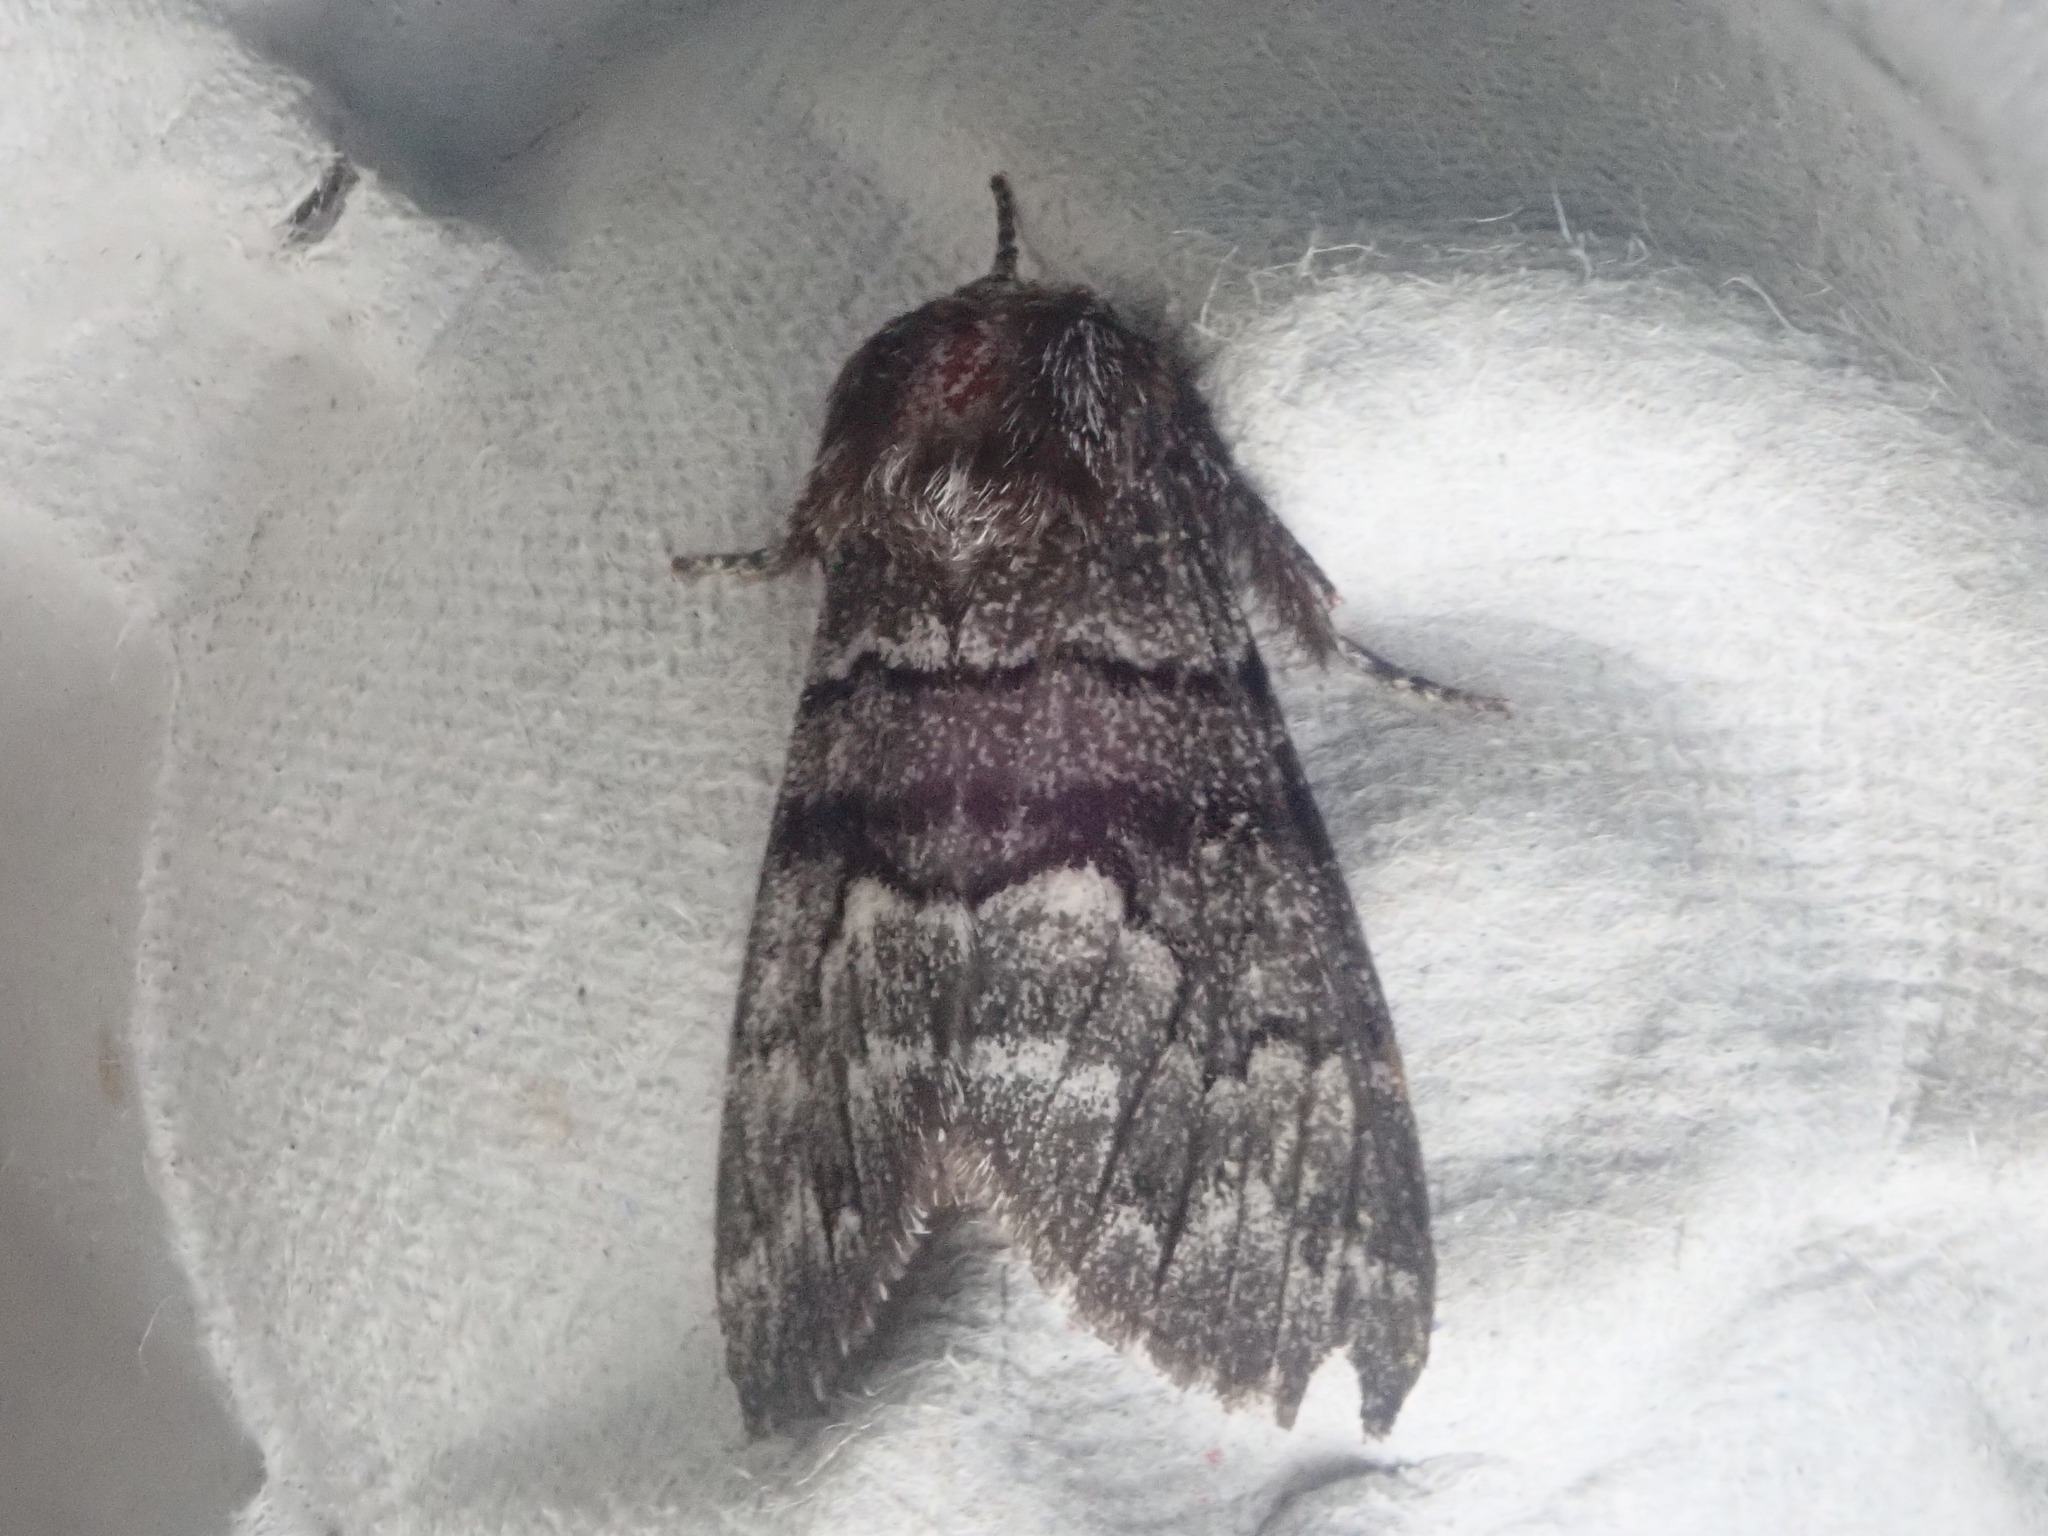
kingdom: Animalia
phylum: Arthropoda
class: Insecta
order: Lepidoptera
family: Noctuidae
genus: Panthea
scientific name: Panthea furcilla
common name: Eastern panthea moth
